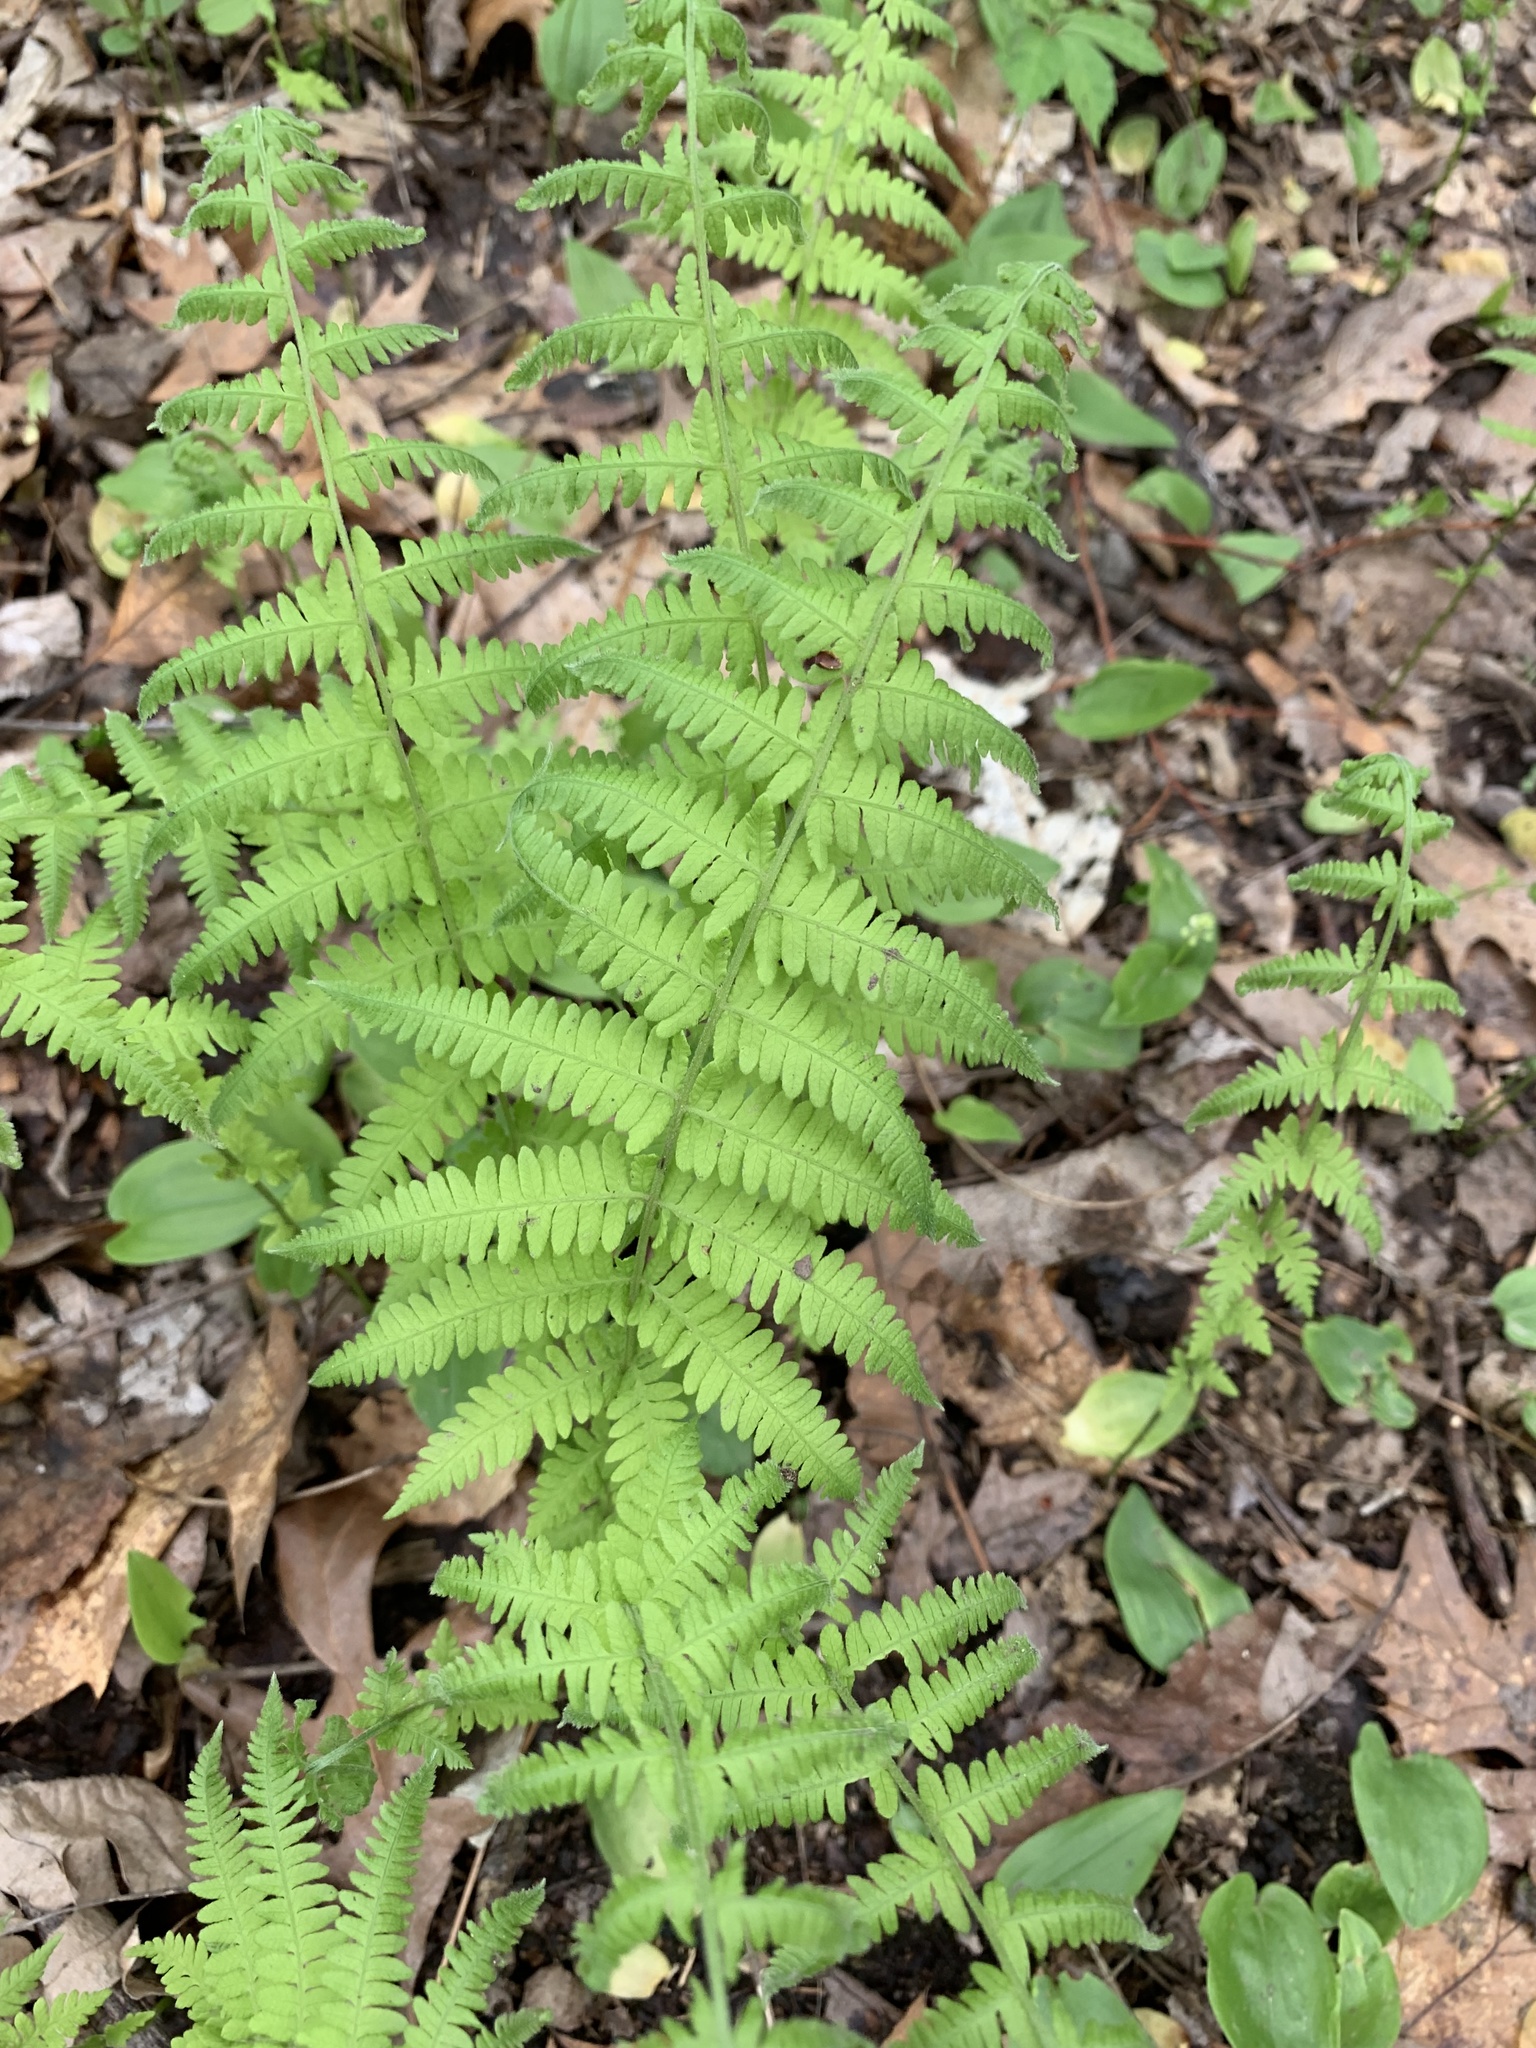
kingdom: Plantae
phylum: Tracheophyta
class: Polypodiopsida
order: Polypodiales
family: Thelypteridaceae
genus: Amauropelta
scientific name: Amauropelta noveboracensis
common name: New york fern
